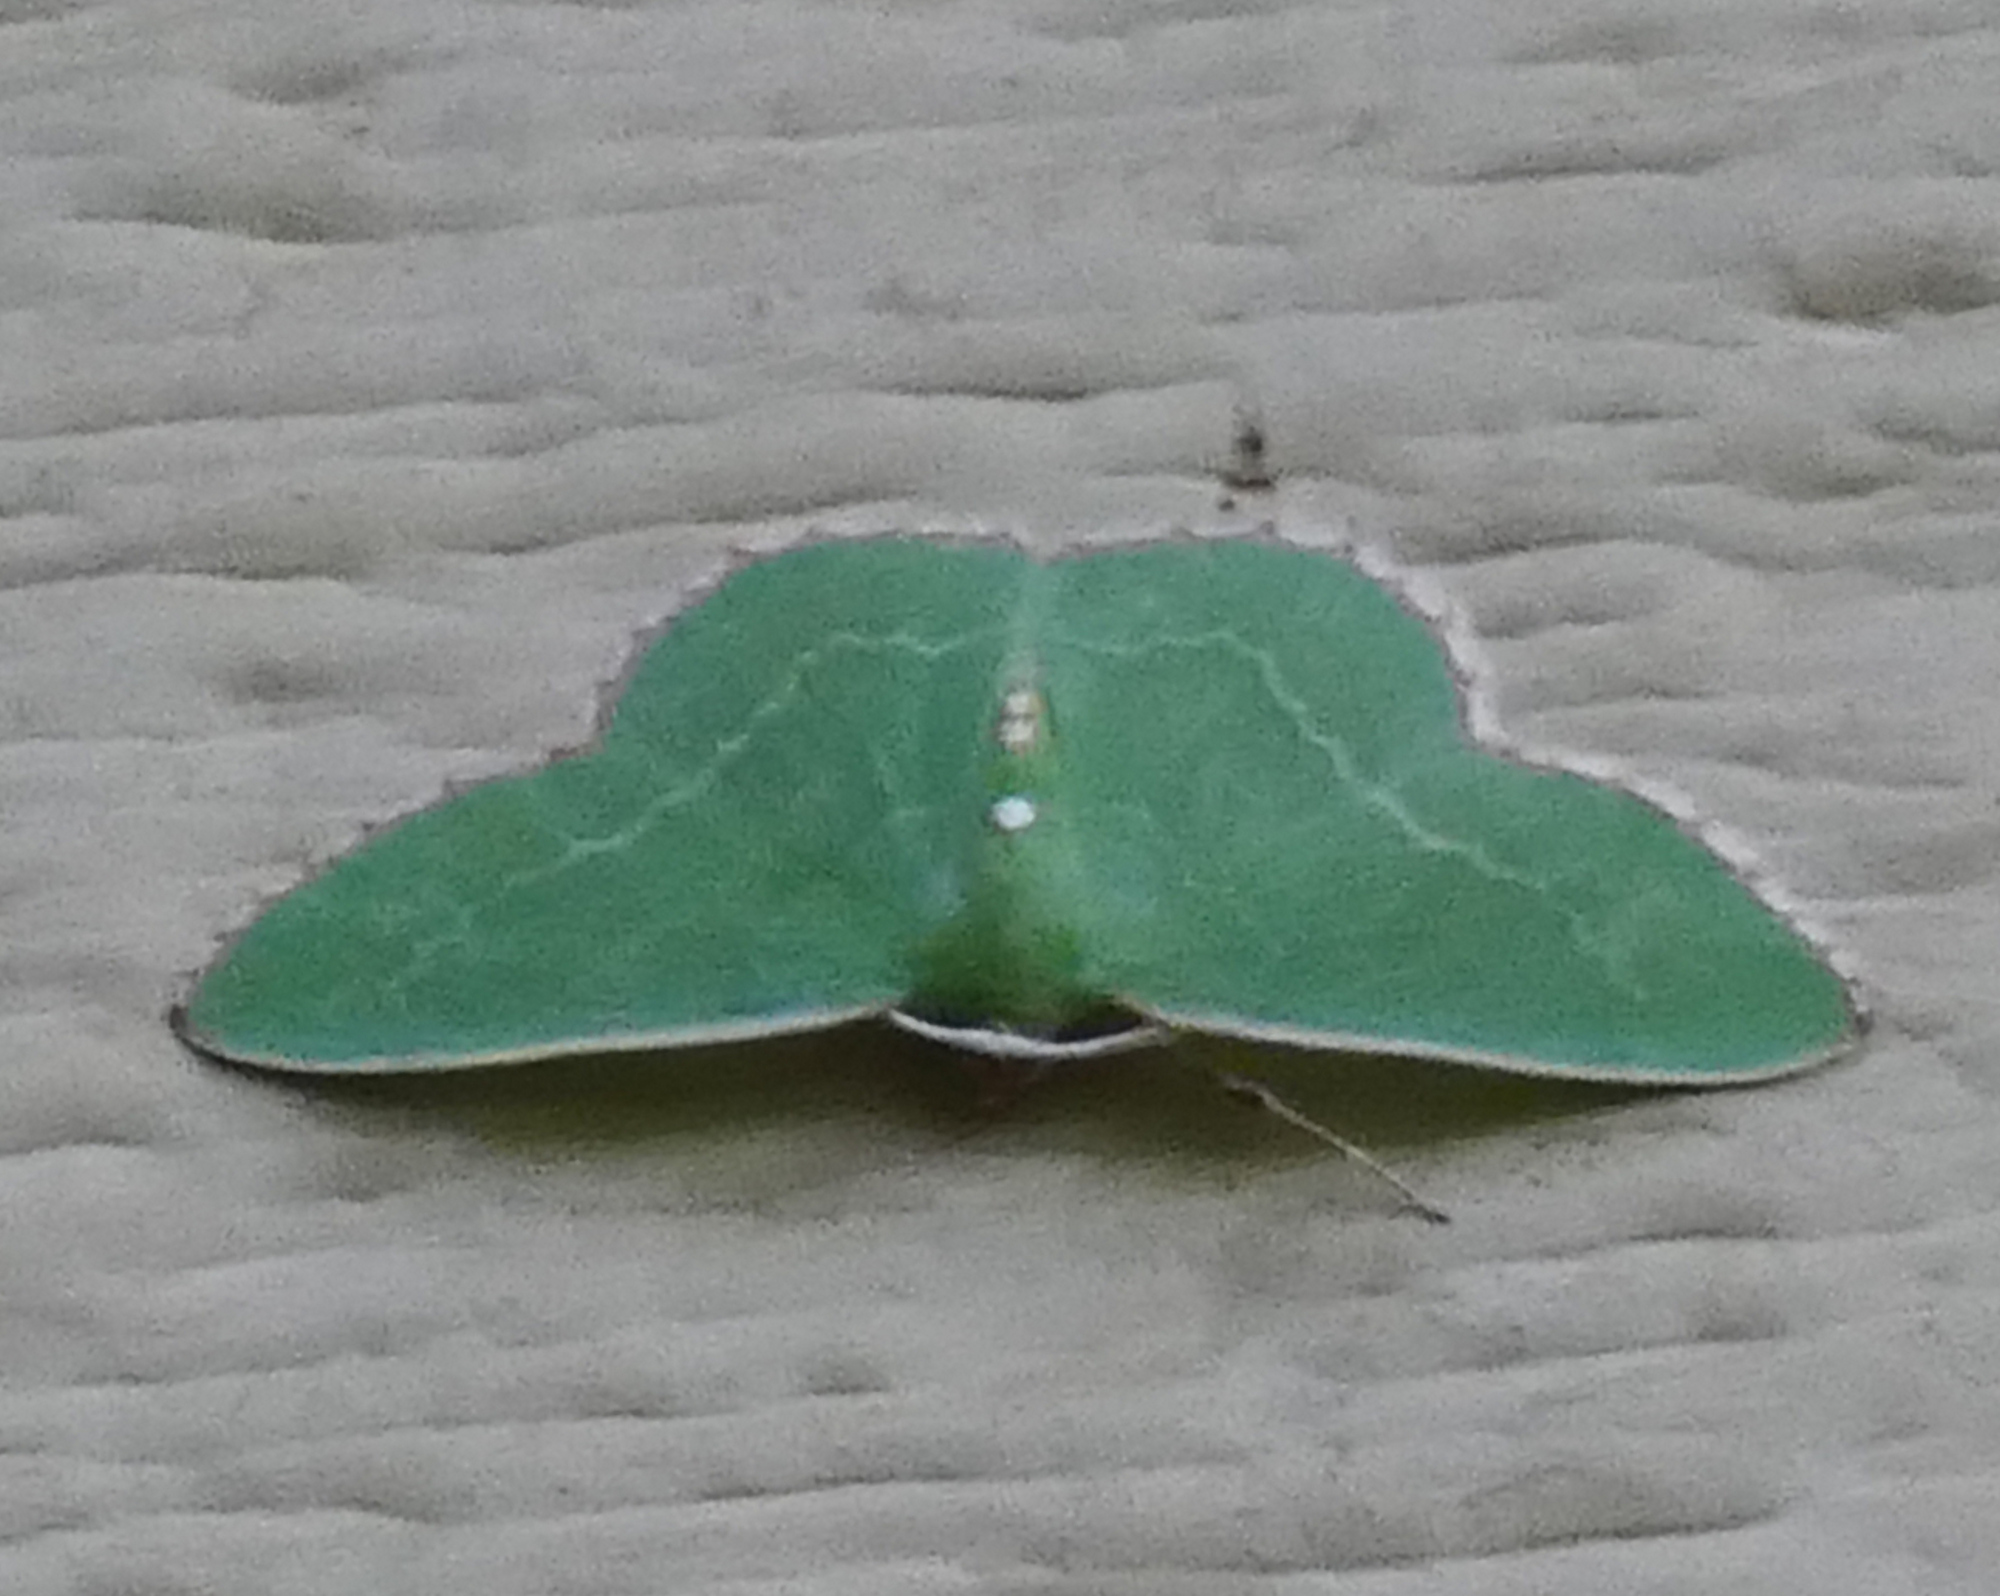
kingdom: Animalia
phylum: Arthropoda
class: Insecta
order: Lepidoptera
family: Geometridae
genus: Nemoria
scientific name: Nemoria lixaria
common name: Red-bordered emerald
